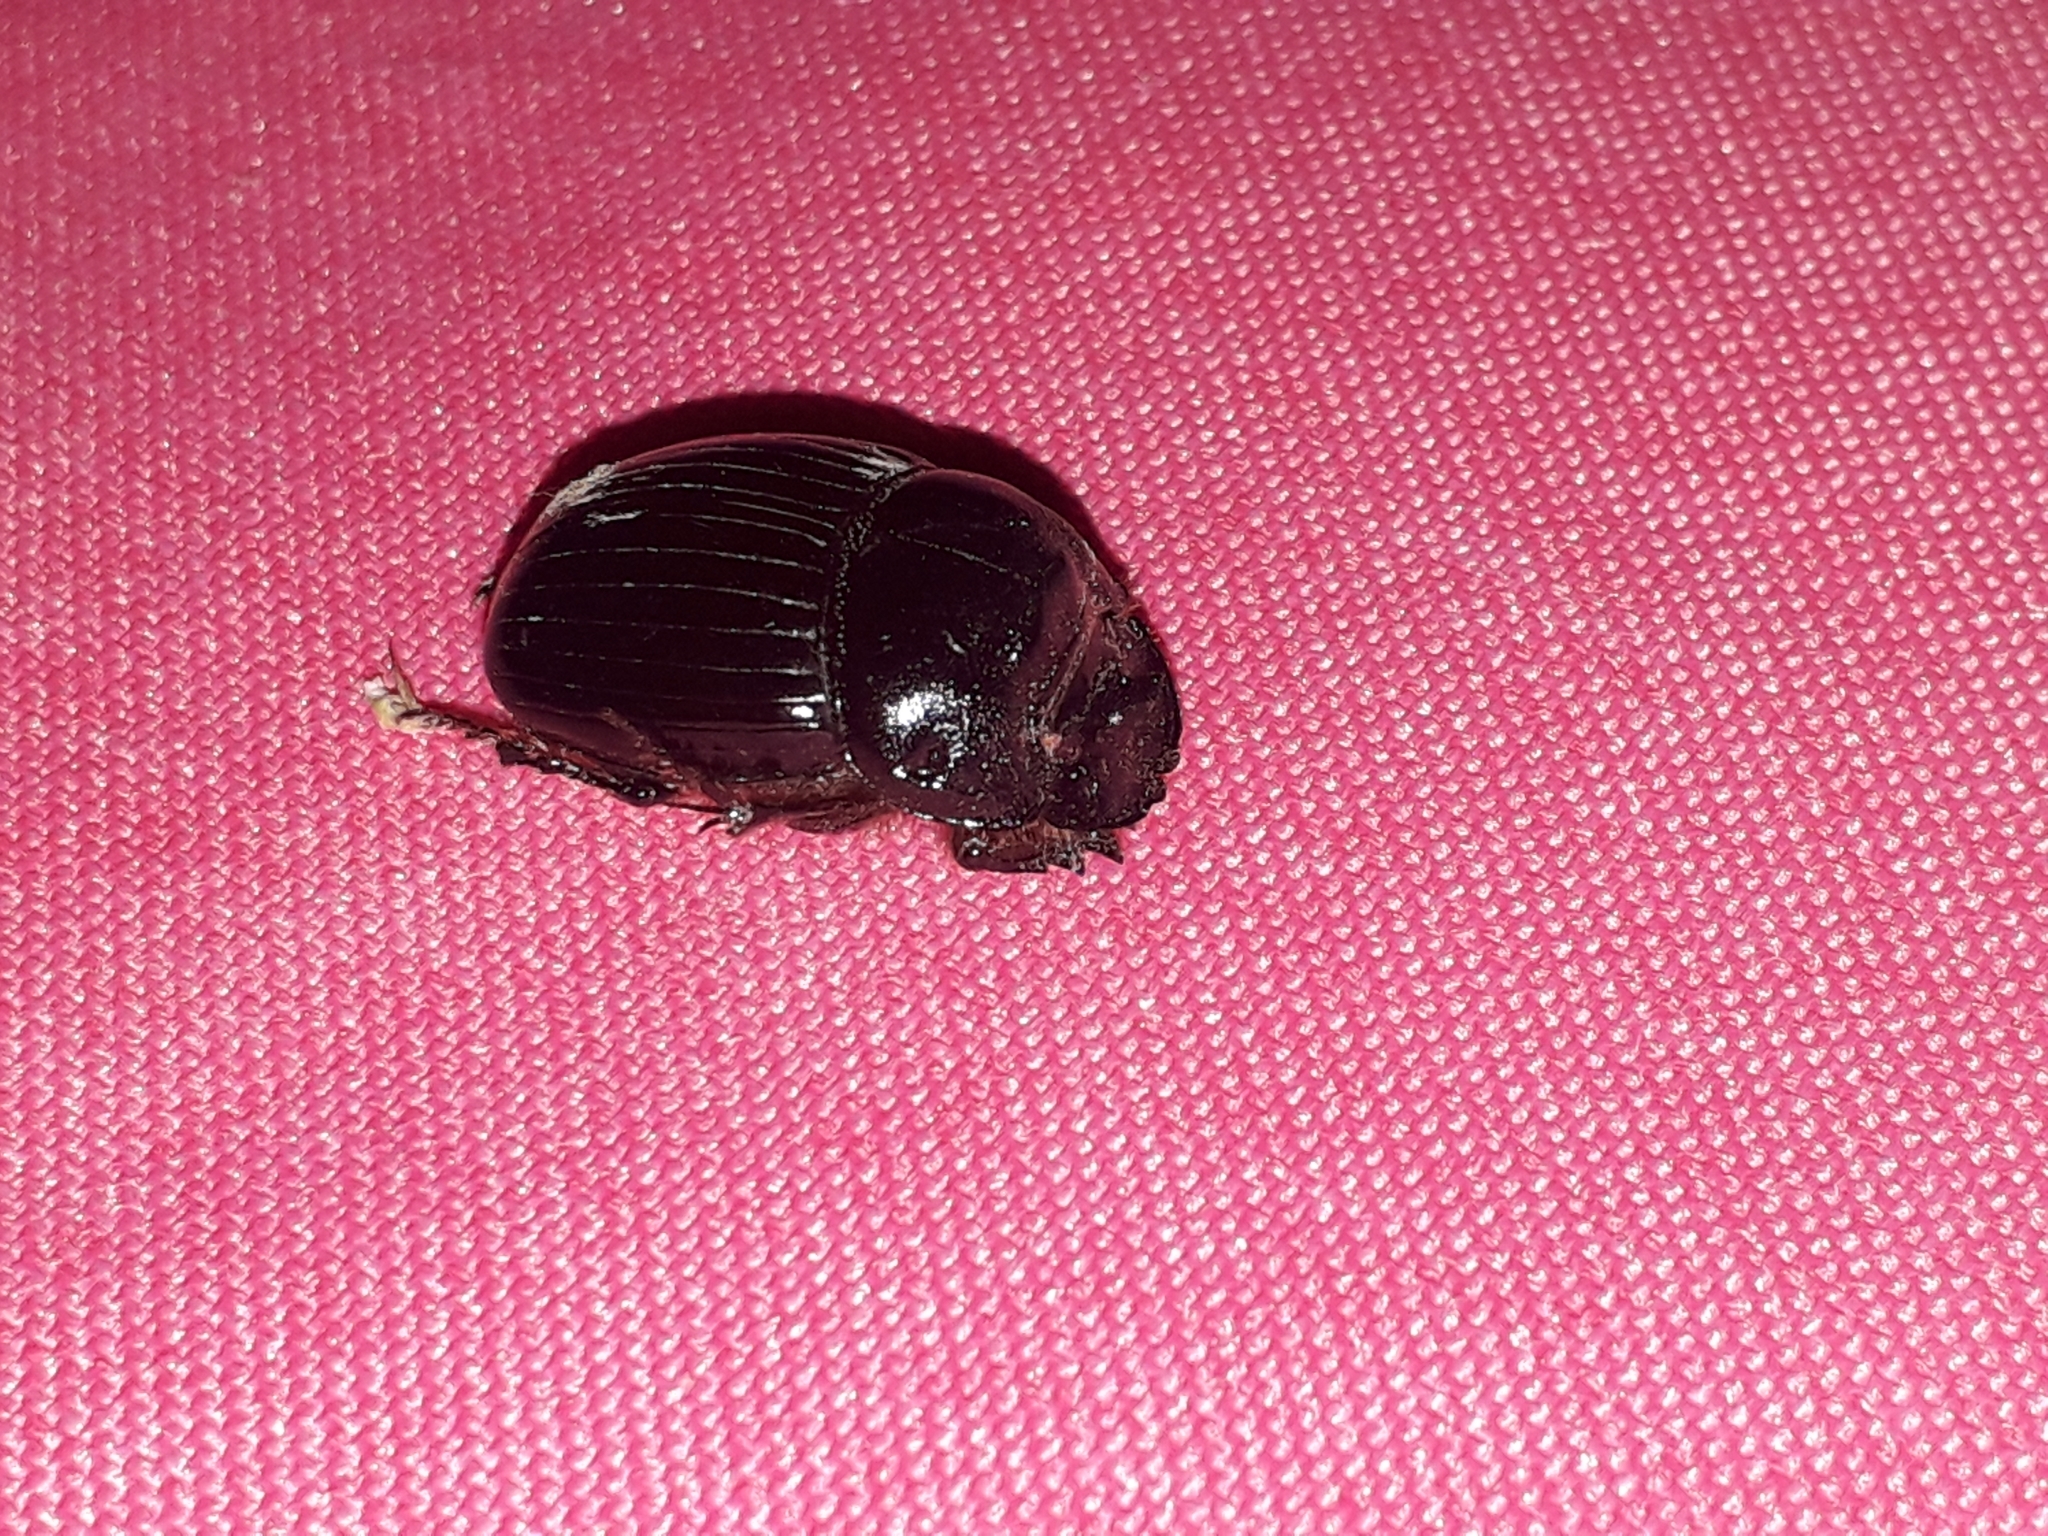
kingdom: Animalia
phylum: Arthropoda
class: Insecta
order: Coleoptera
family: Scarabaeidae
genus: Copris
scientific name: Copris lunaris
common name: Horned dung beetle
